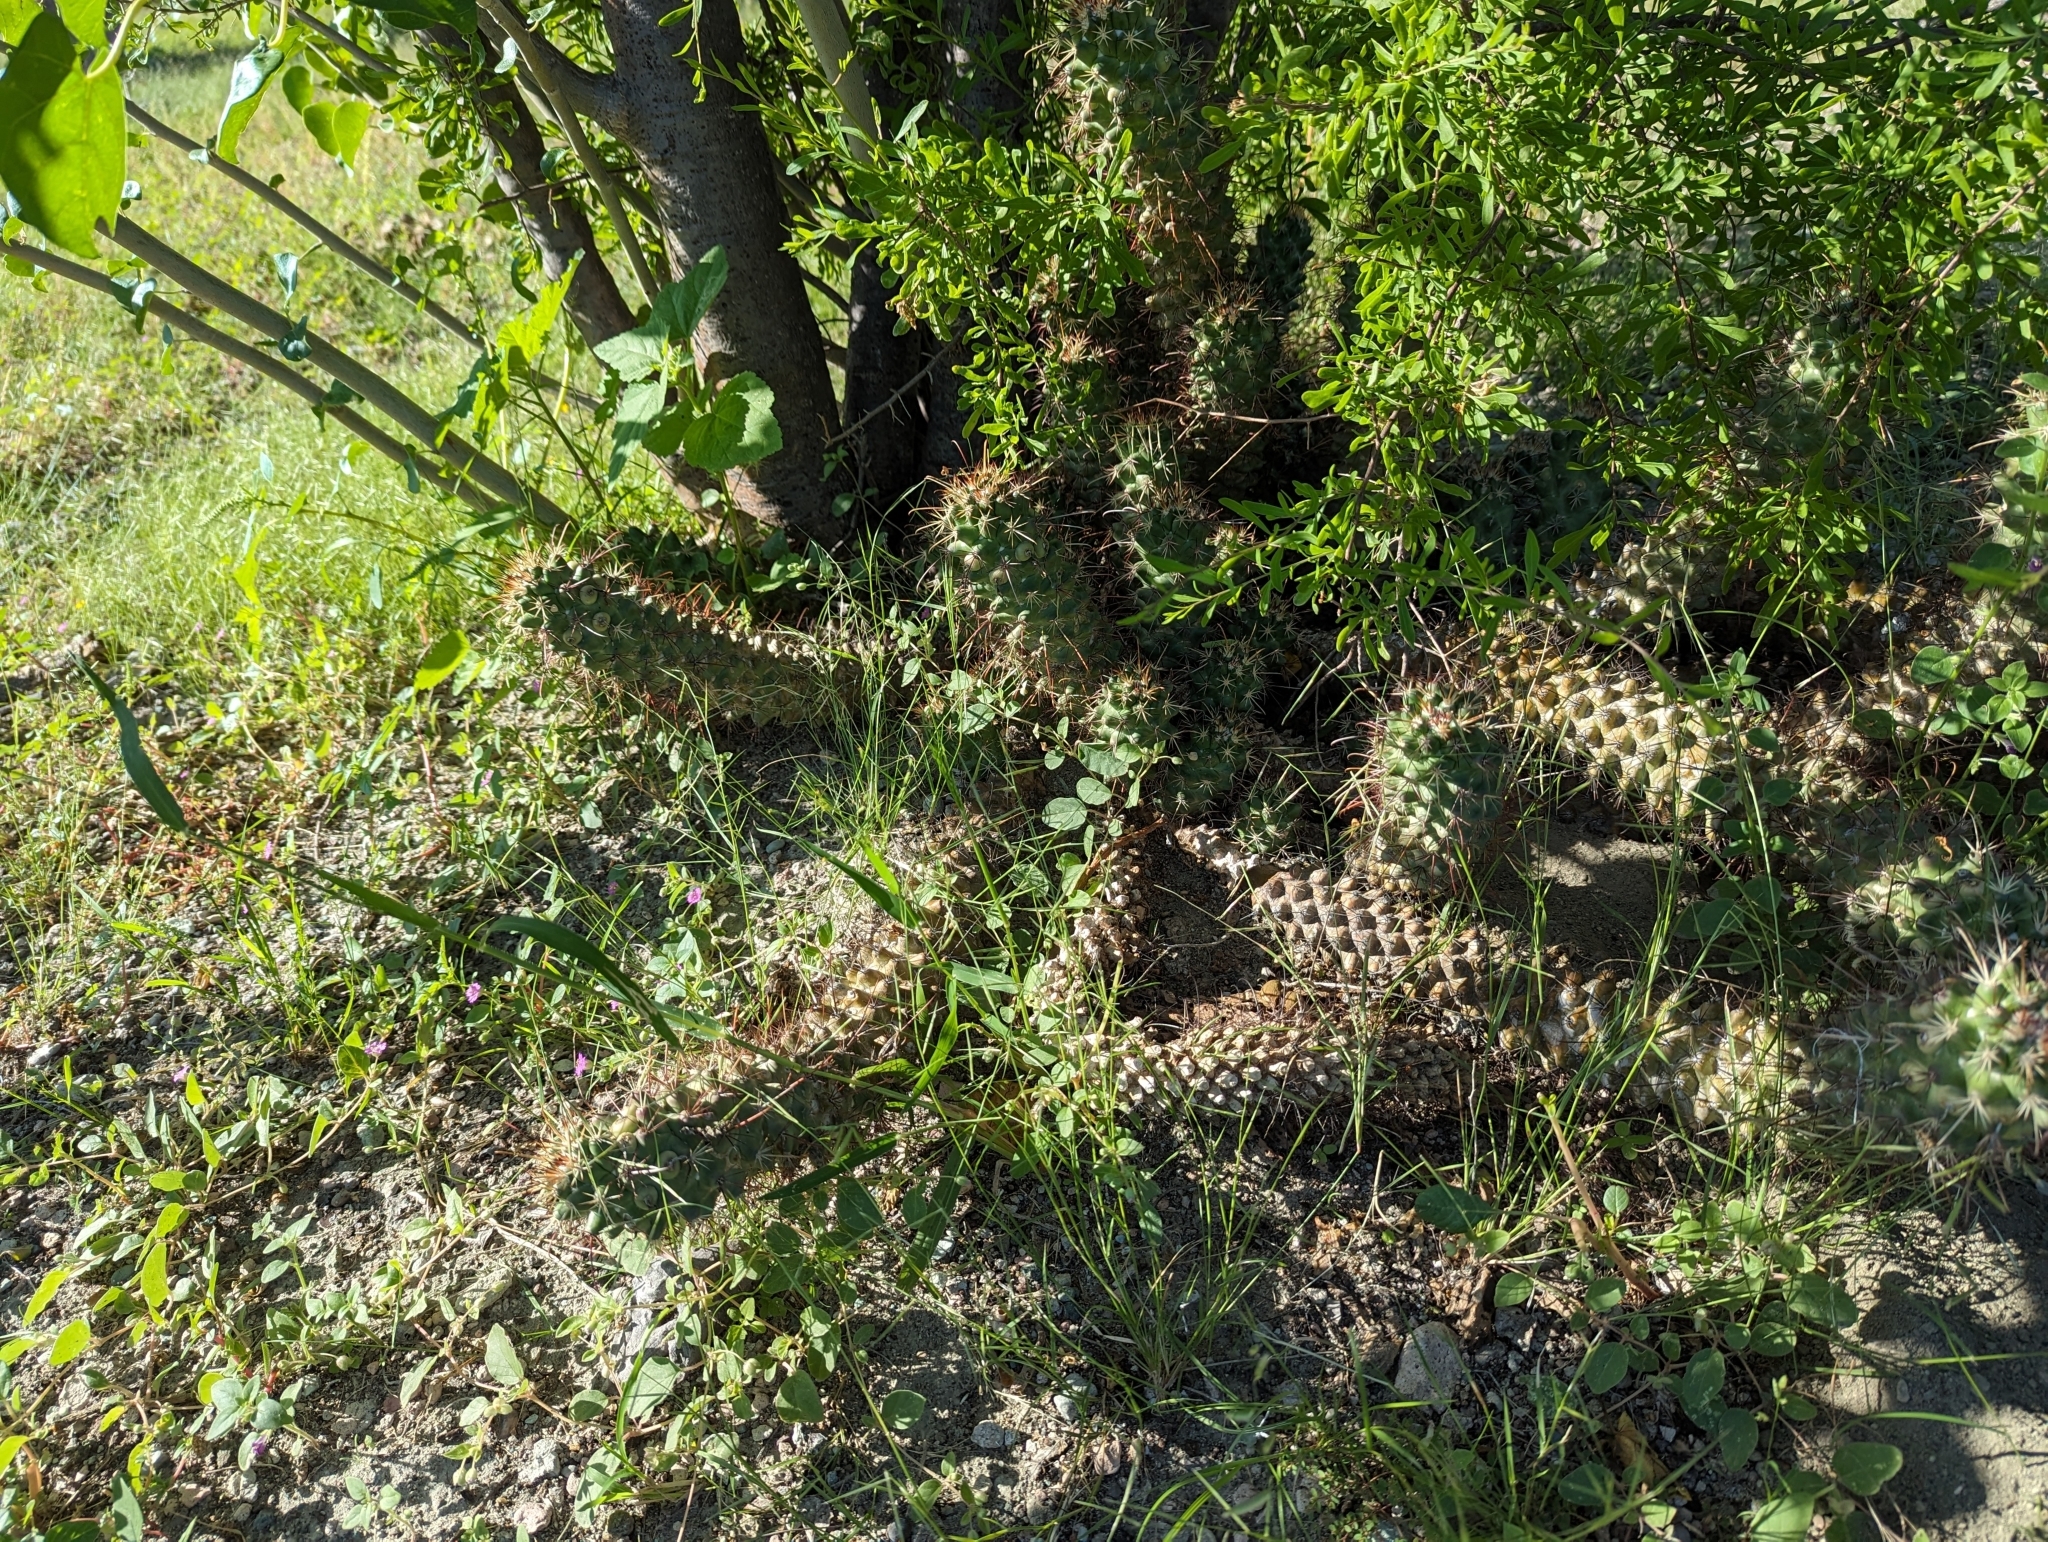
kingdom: Plantae
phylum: Tracheophyta
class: Magnoliopsida
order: Caryophyllales
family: Cactaceae
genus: Cochemiea
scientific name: Cochemiea poselgeri
